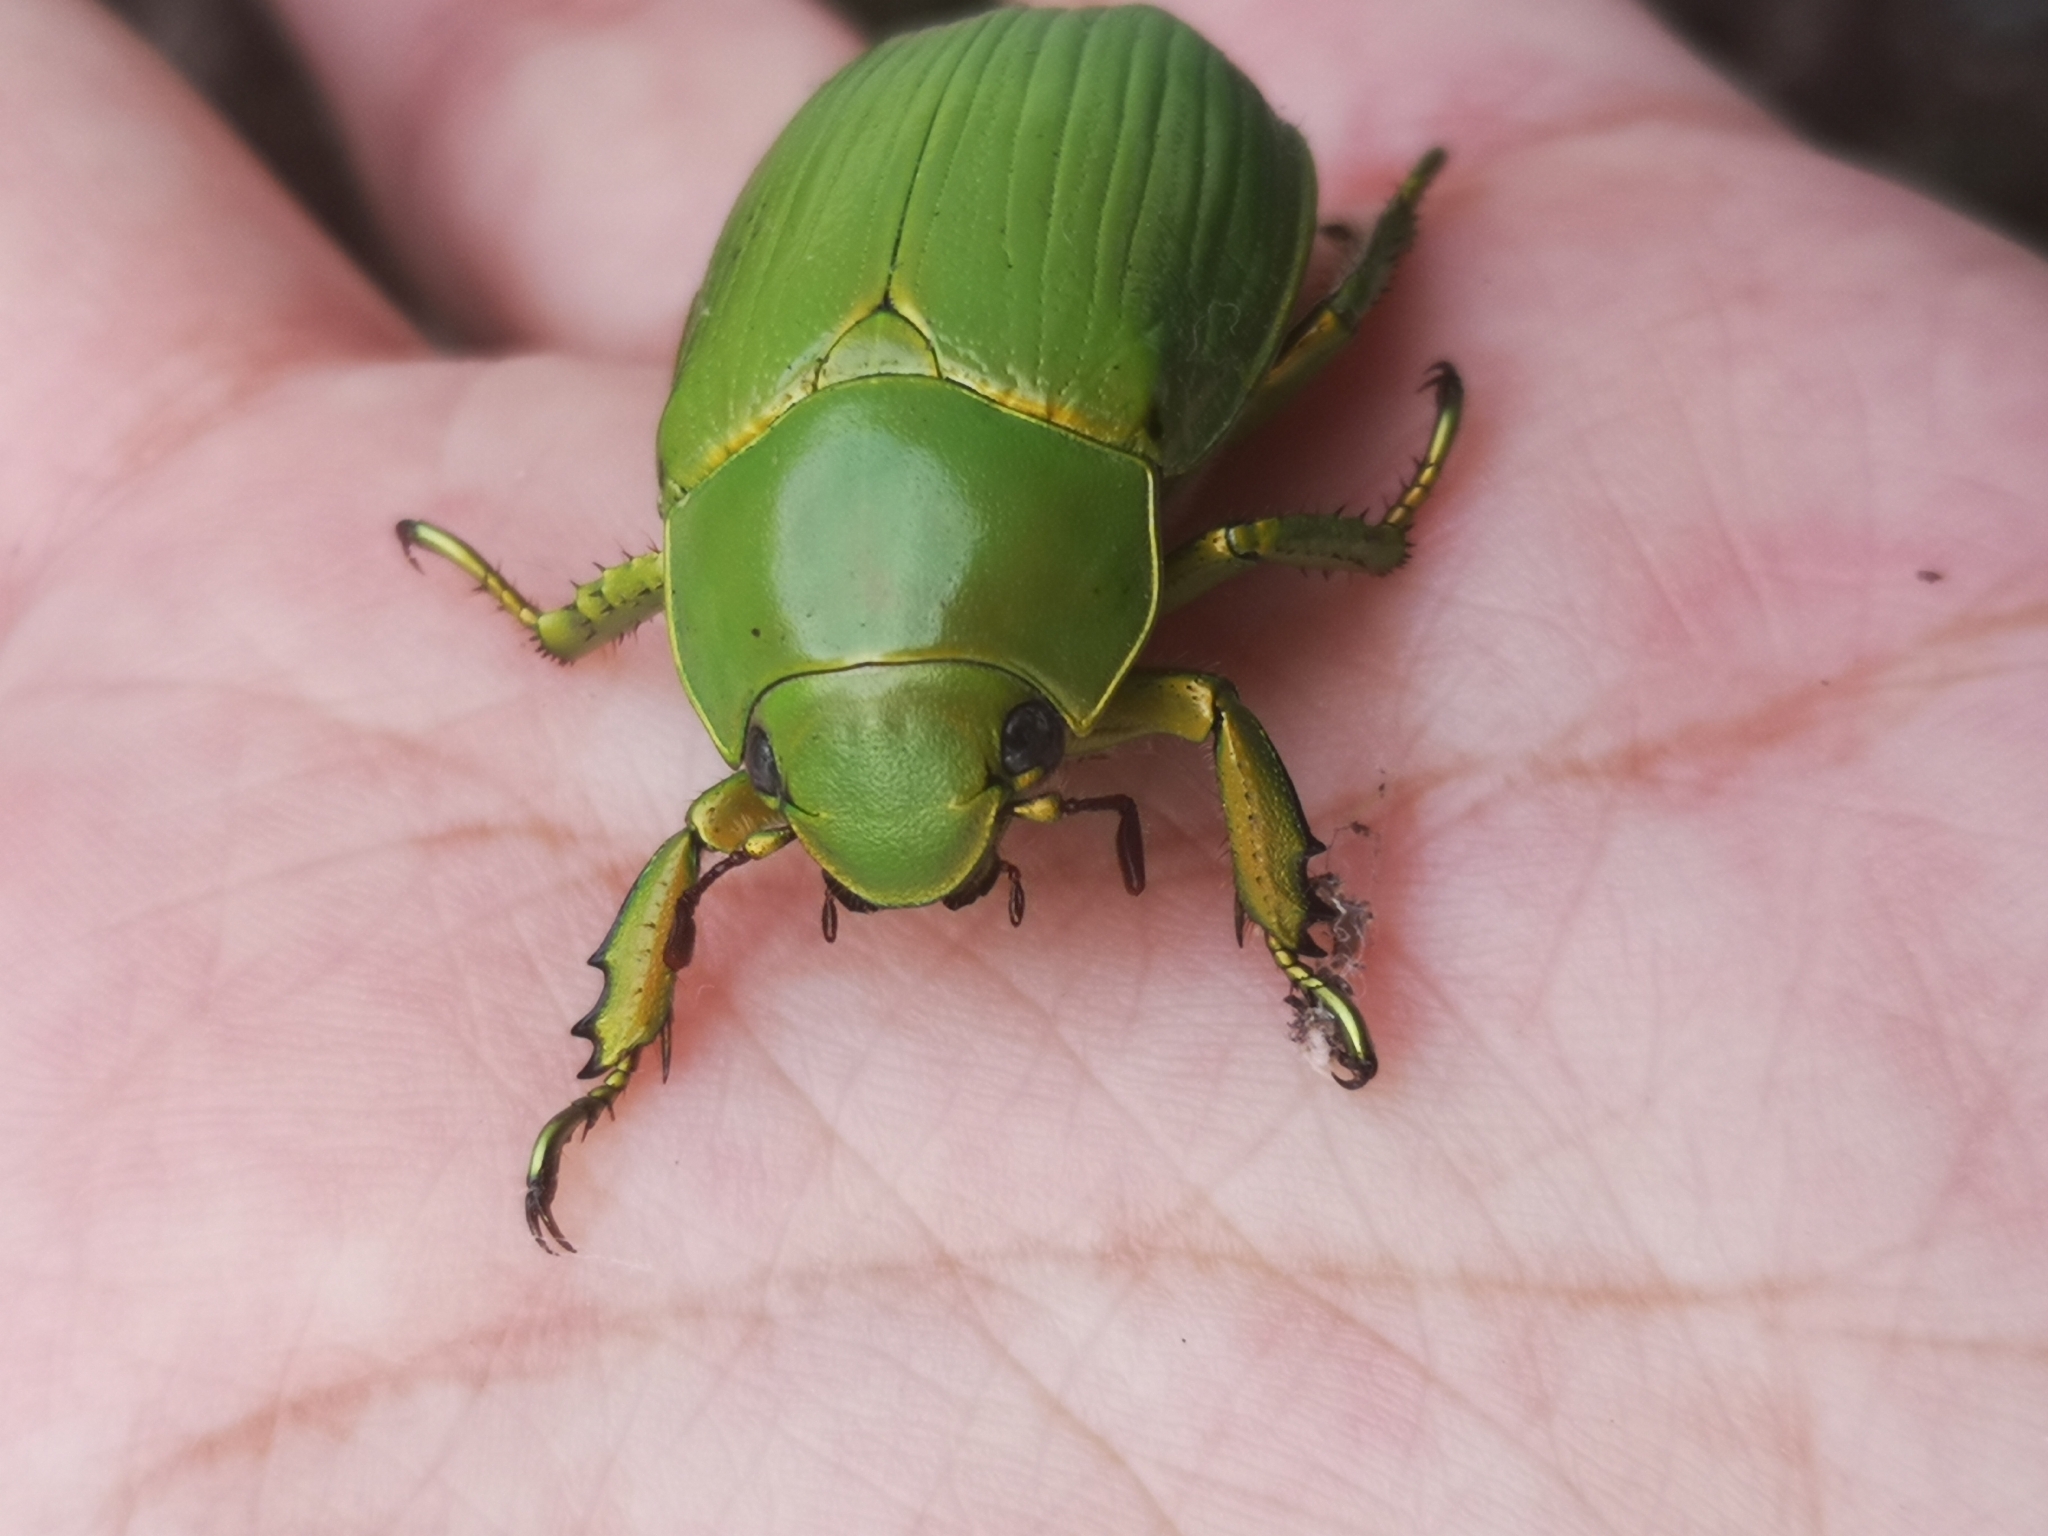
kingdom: Animalia
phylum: Arthropoda
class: Insecta
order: Coleoptera
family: Scarabaeidae
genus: Chrysina
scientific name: Chrysina psittacina
